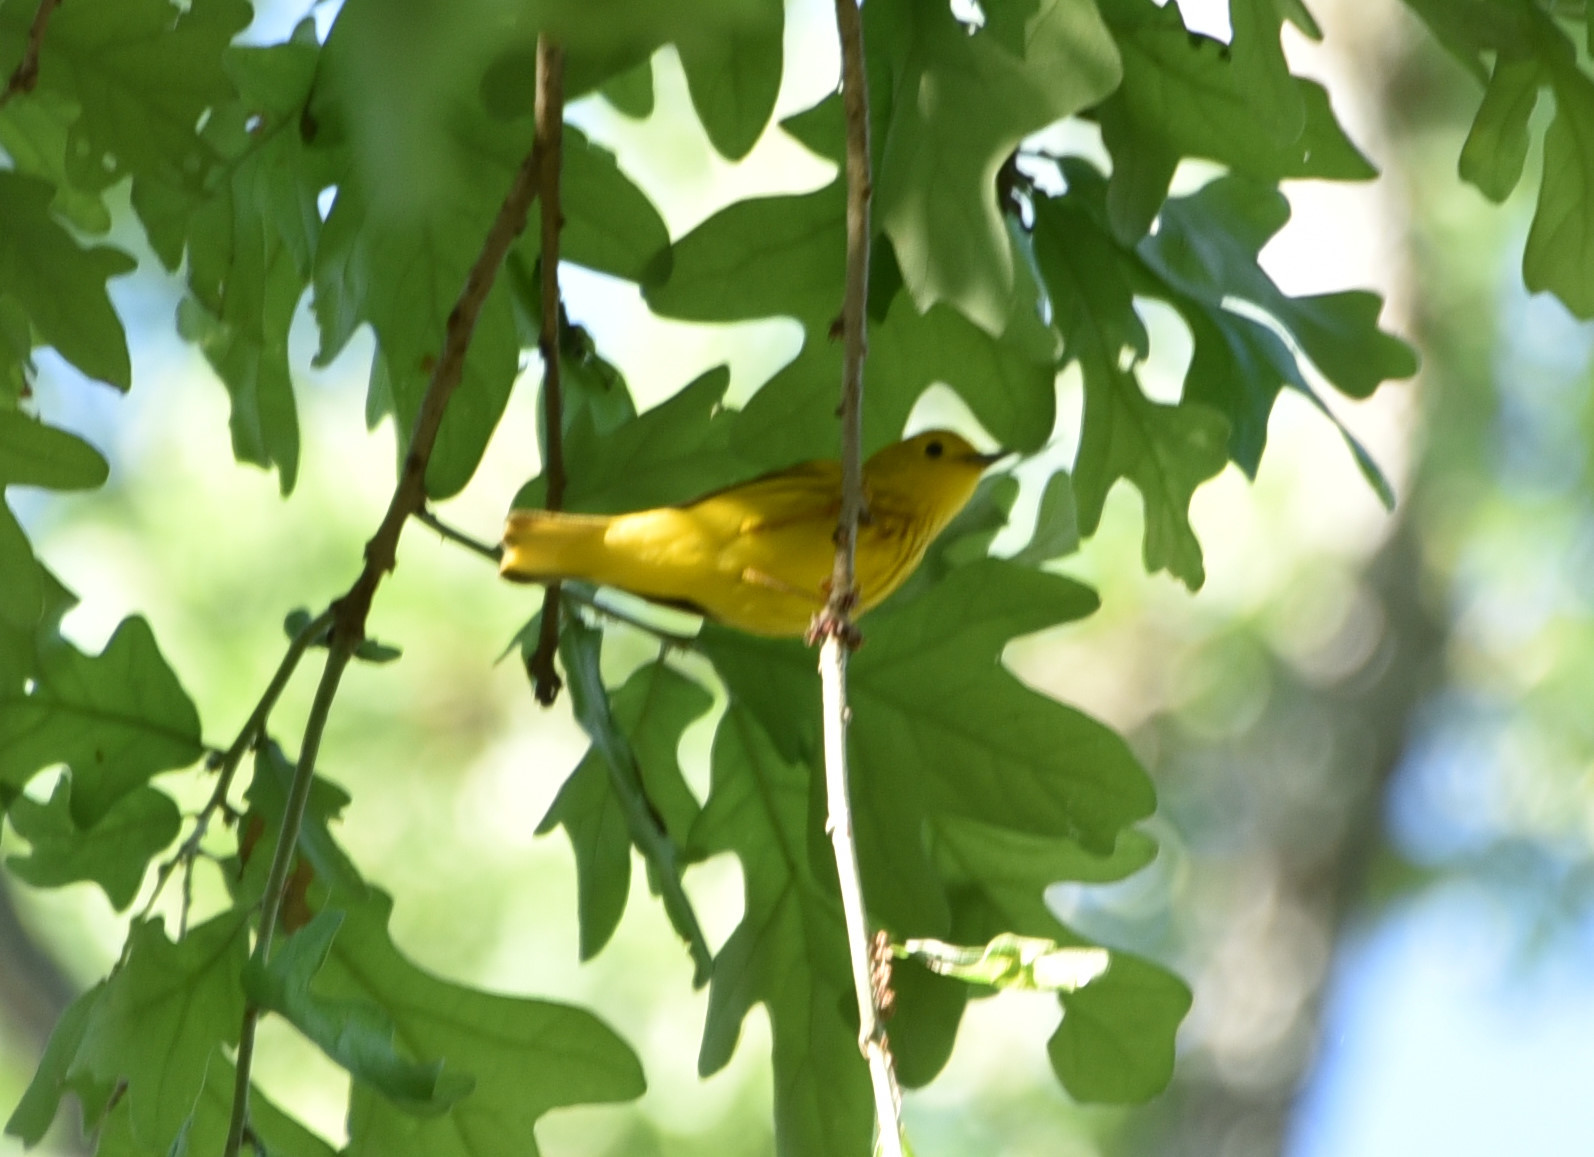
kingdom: Animalia
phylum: Chordata
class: Aves
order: Passeriformes
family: Parulidae
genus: Setophaga
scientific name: Setophaga petechia
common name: Yellow warbler
